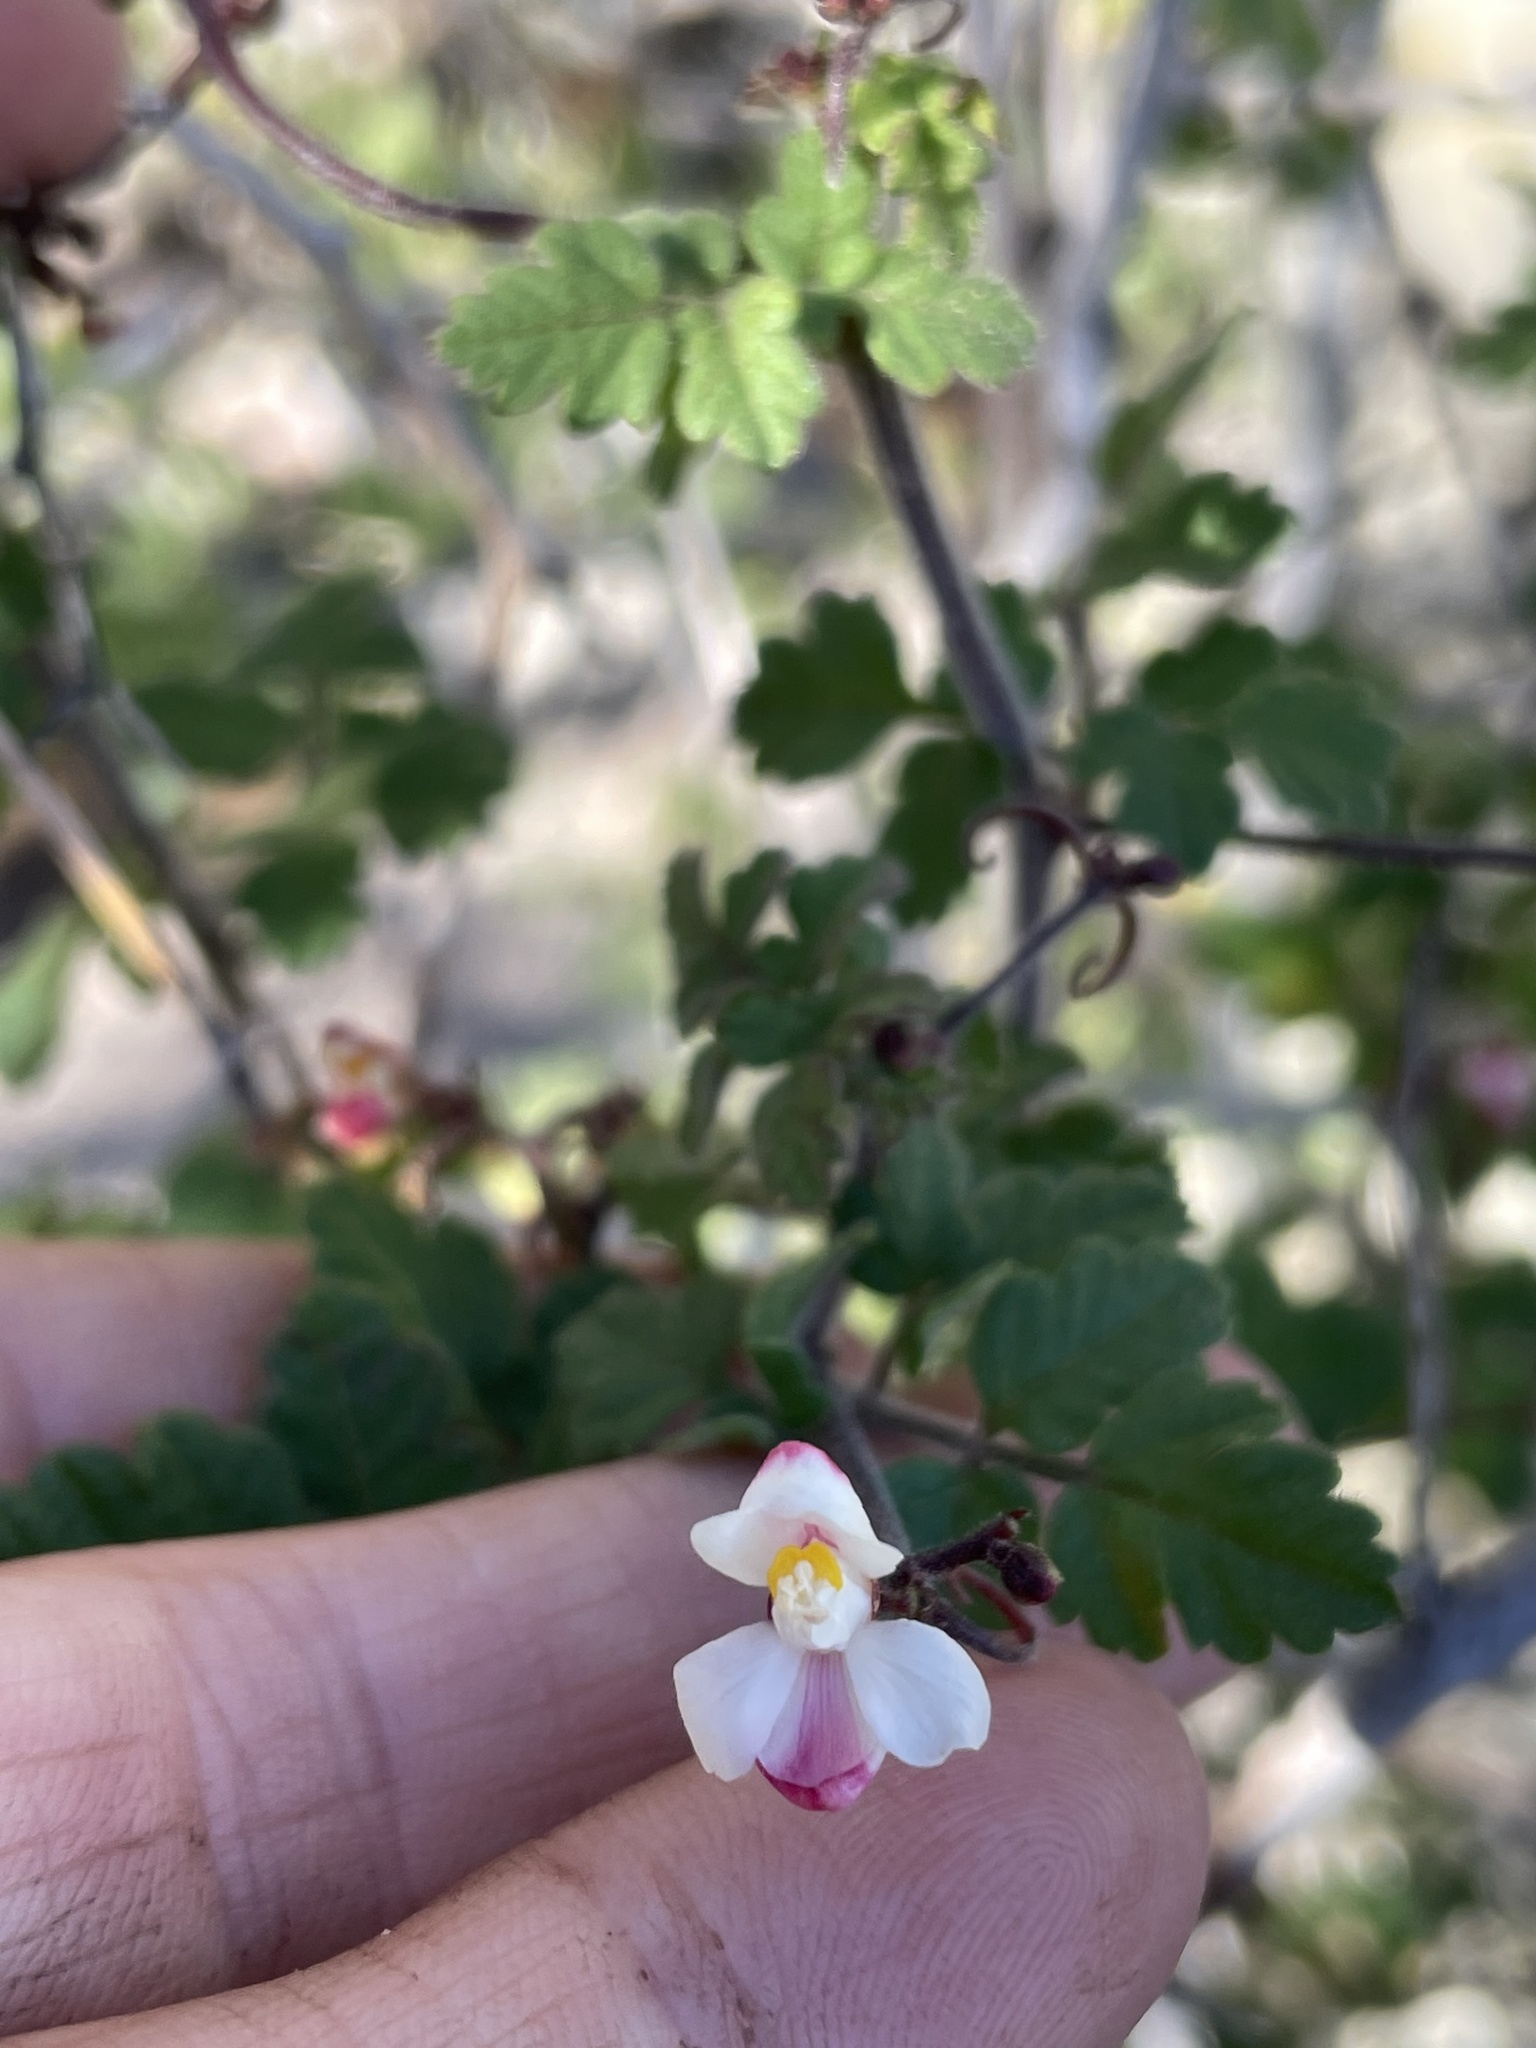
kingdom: Plantae
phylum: Tracheophyta
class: Magnoliopsida
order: Sapindales
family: Sapindaceae
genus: Cardiospermum
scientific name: Cardiospermum corindum
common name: Faux persil
